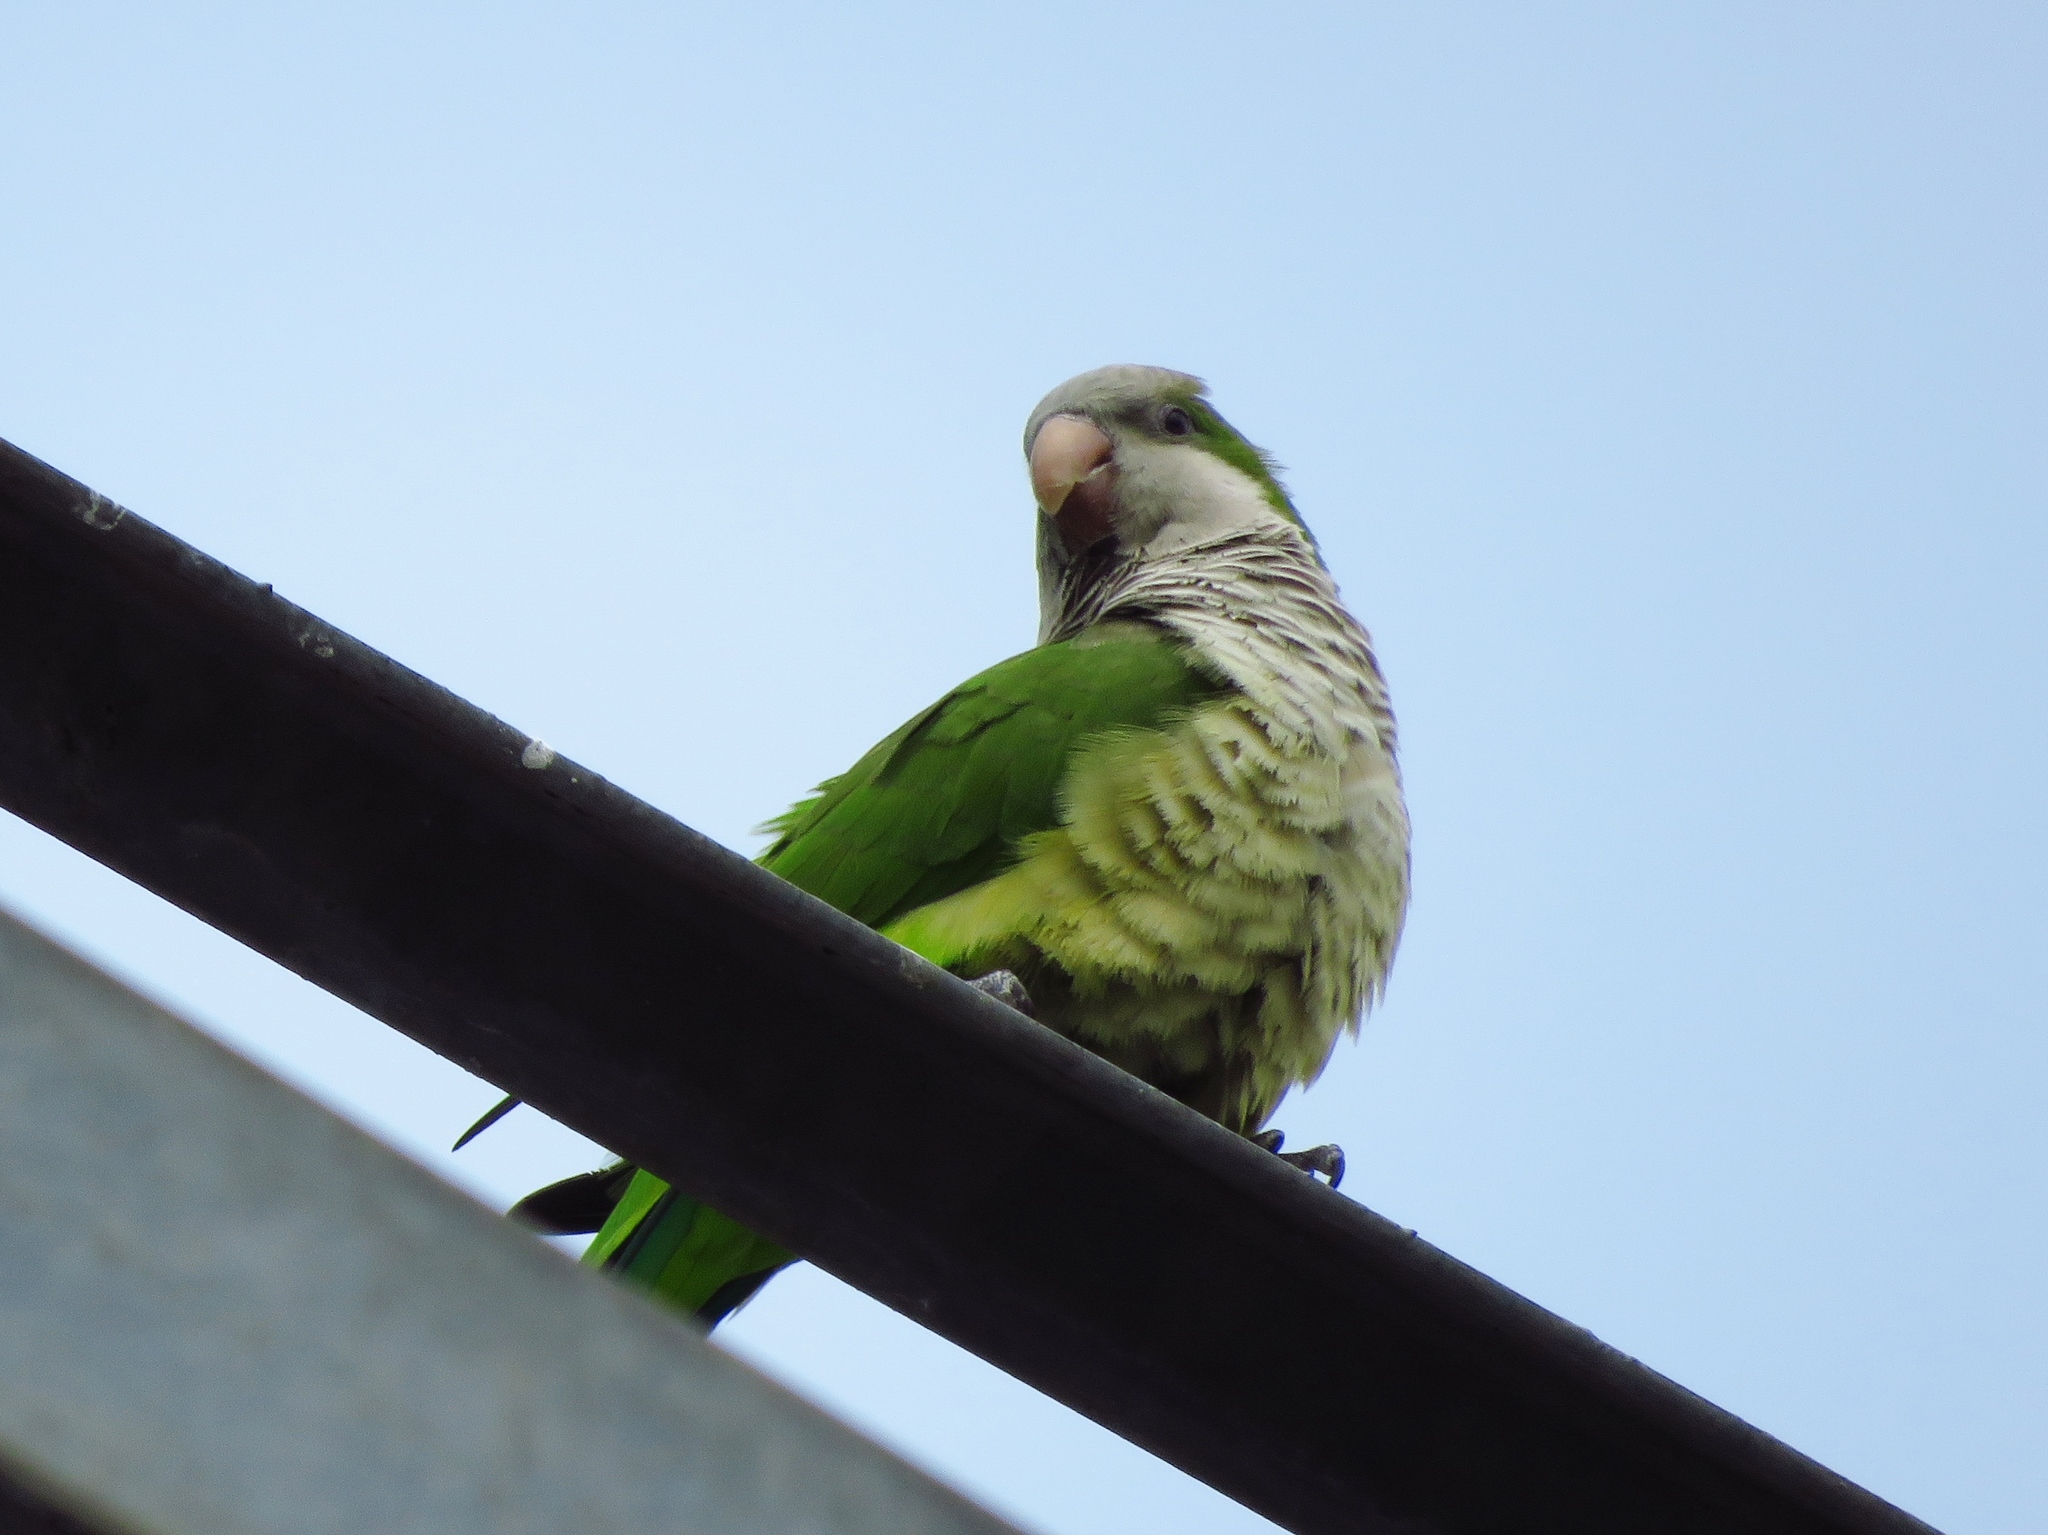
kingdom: Animalia
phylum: Chordata
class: Aves
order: Psittaciformes
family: Psittacidae
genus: Myiopsitta
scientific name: Myiopsitta monachus
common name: Monk parakeet
